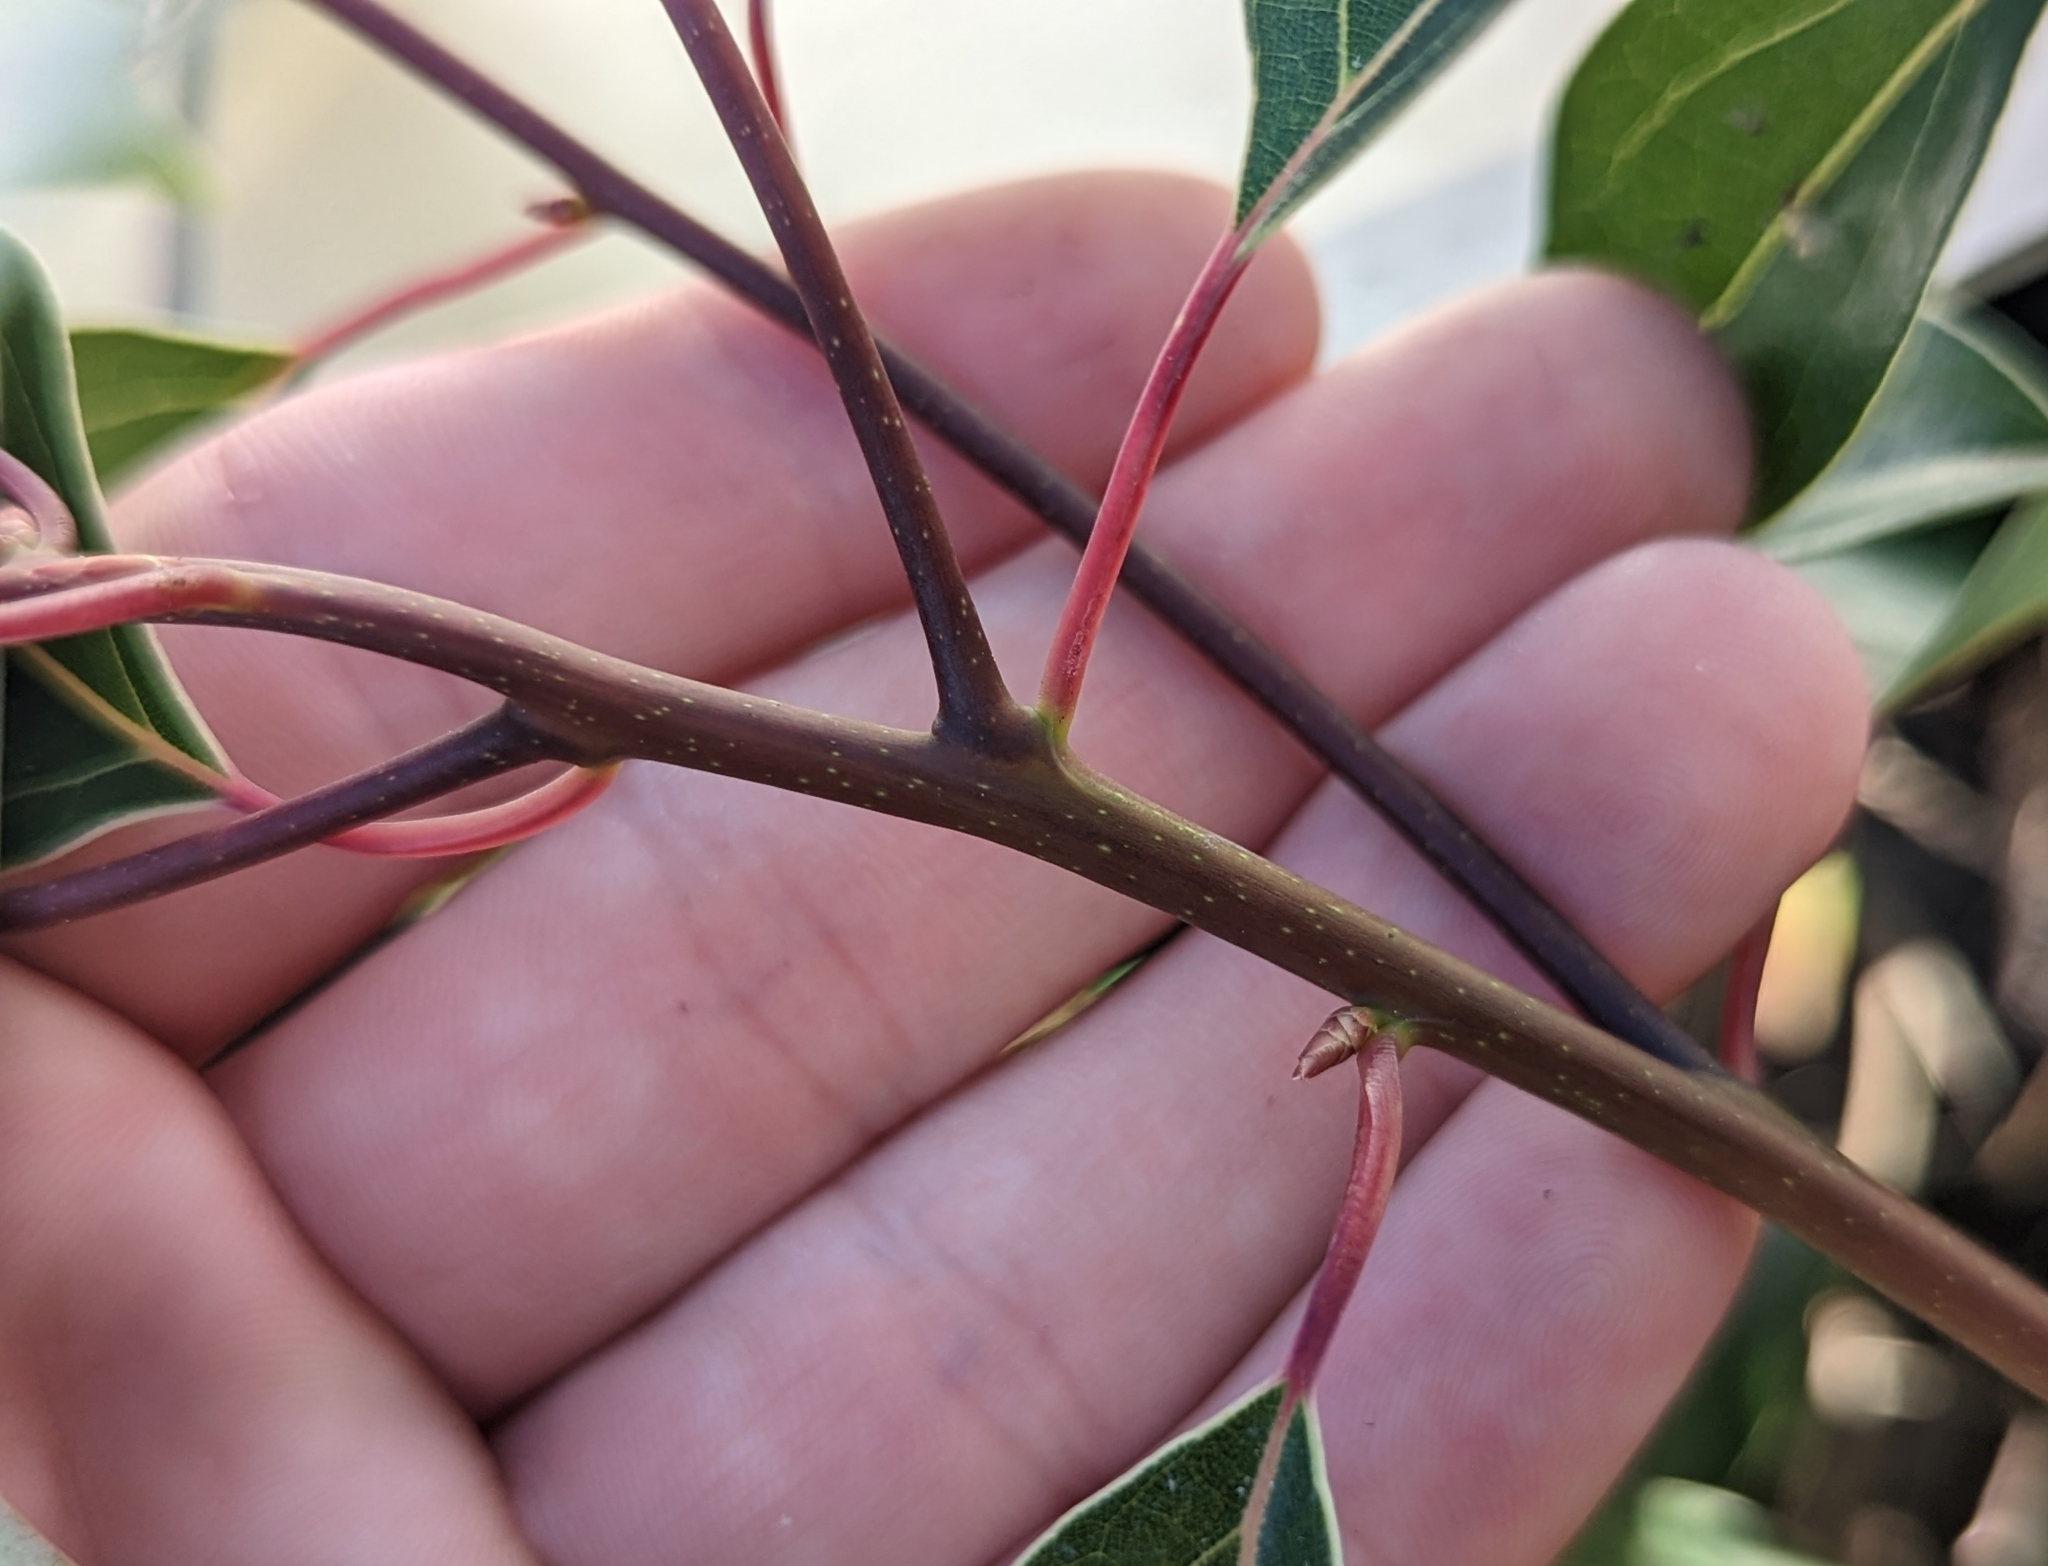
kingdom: Plantae
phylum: Tracheophyta
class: Magnoliopsida
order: Laurales
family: Lauraceae
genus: Cinnamomum
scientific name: Cinnamomum camphora
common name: Camphortree
